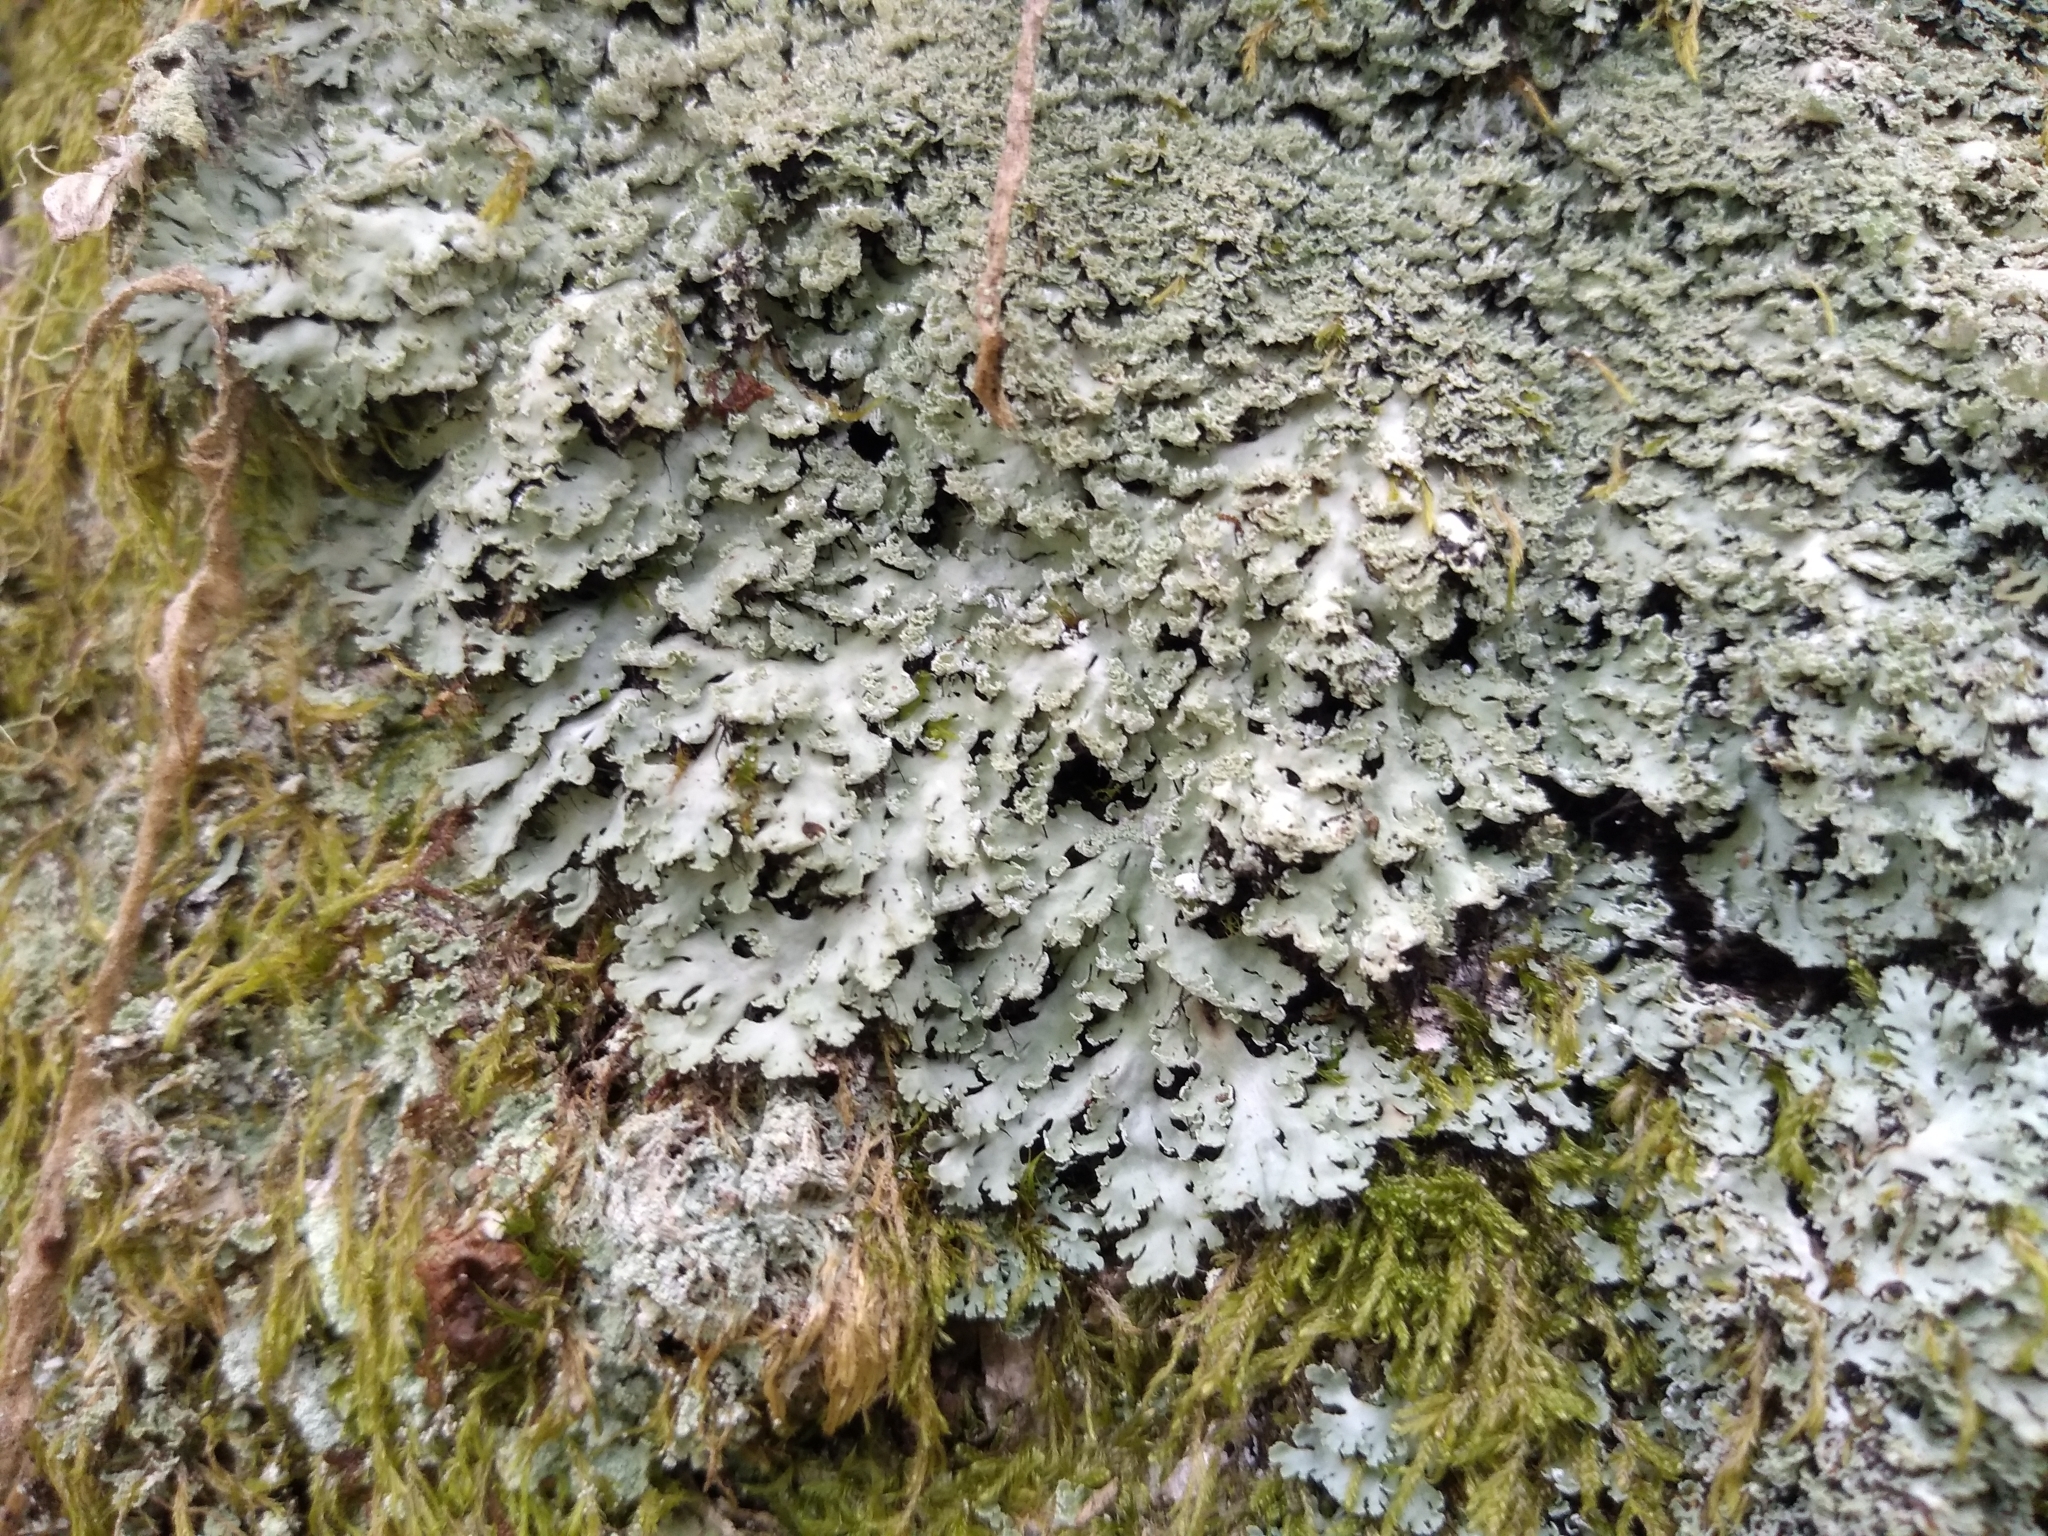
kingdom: Fungi
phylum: Ascomycota
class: Lecanoromycetes
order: Caliciales
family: Physciaceae
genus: Polyblastidium
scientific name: Polyblastidium squamulosum
